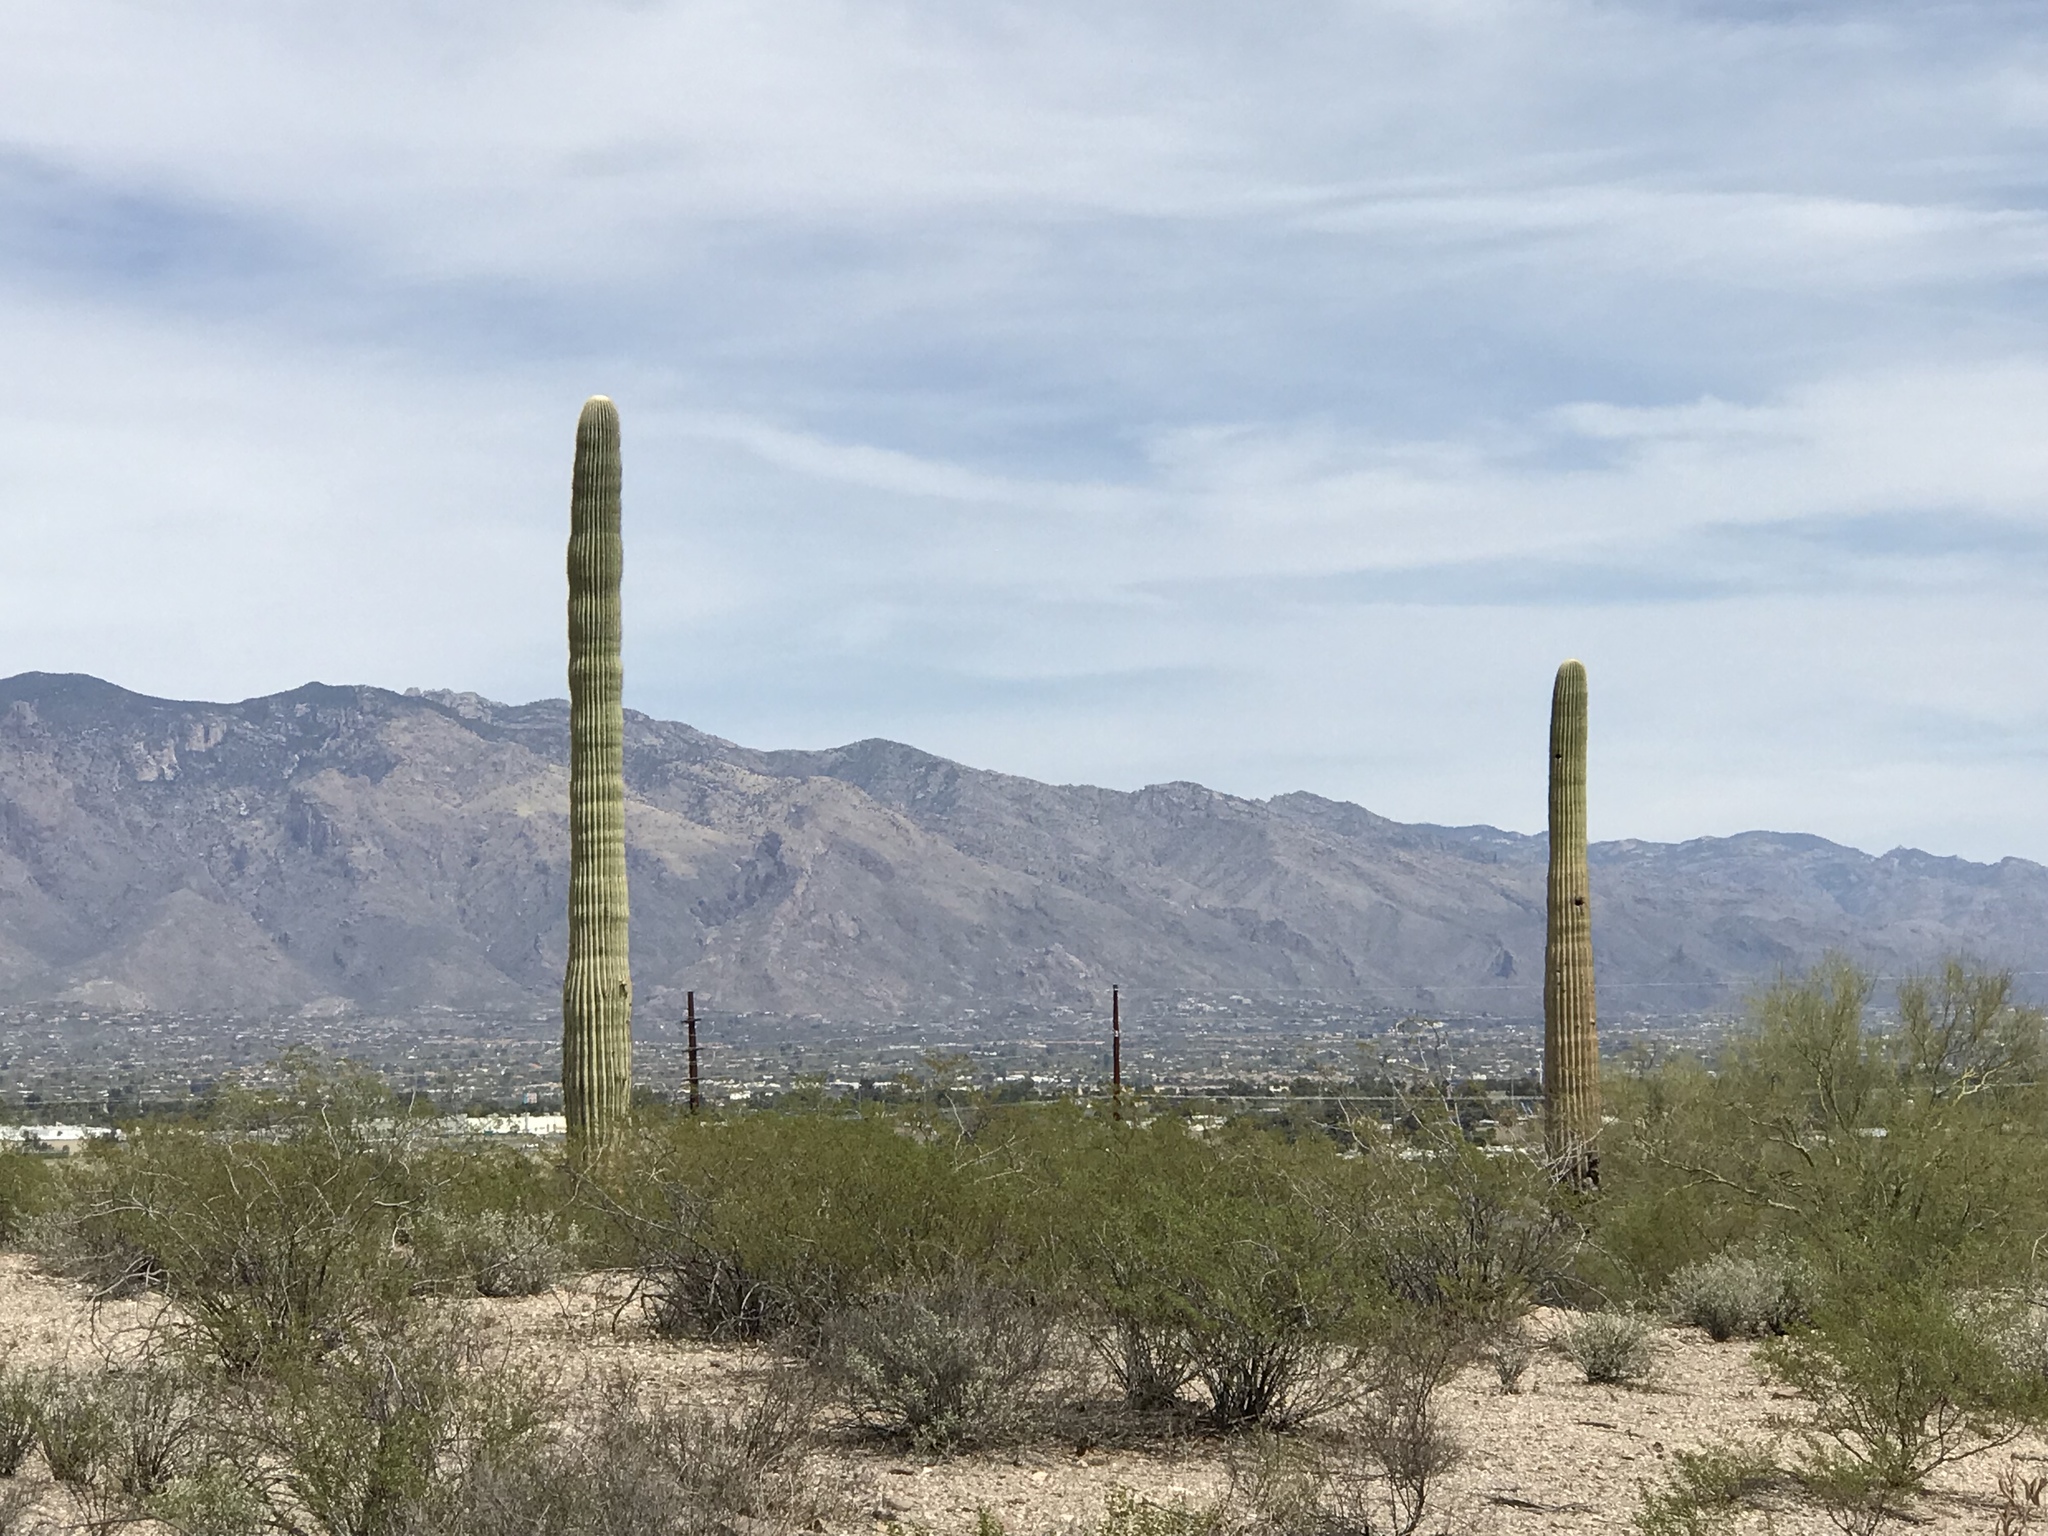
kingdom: Plantae
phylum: Tracheophyta
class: Magnoliopsida
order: Caryophyllales
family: Cactaceae
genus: Carnegiea
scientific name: Carnegiea gigantea
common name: Saguaro
